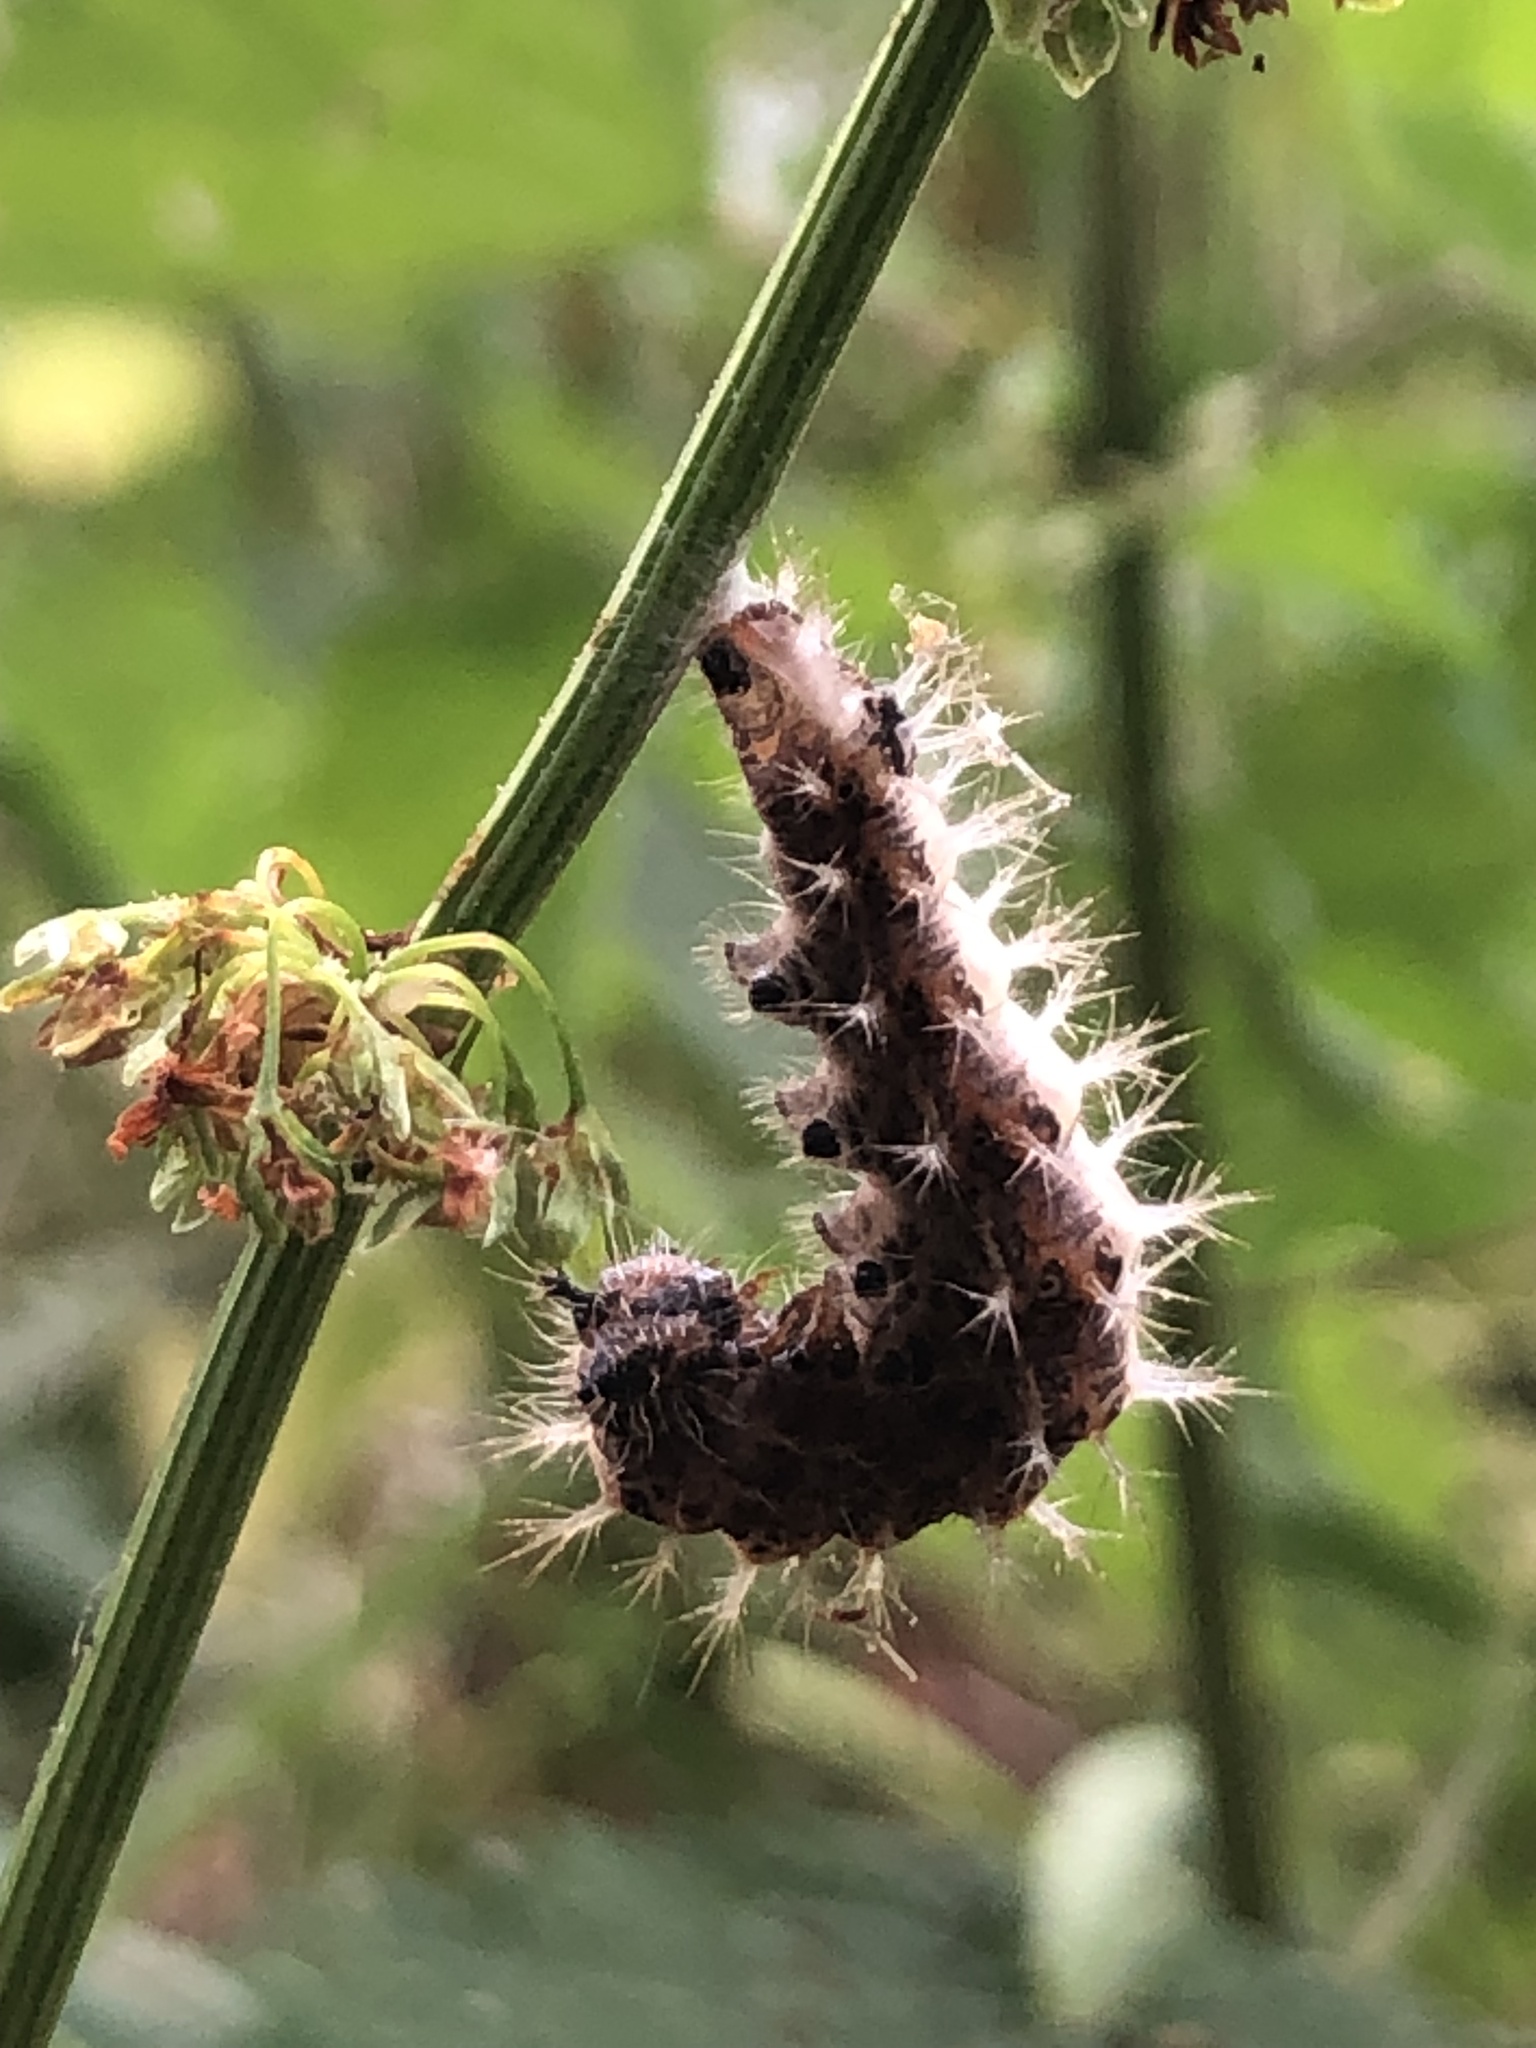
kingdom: Animalia
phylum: Arthropoda
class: Insecta
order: Lepidoptera
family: Nymphalidae
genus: Polygonia
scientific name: Polygonia c-album
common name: Comma
